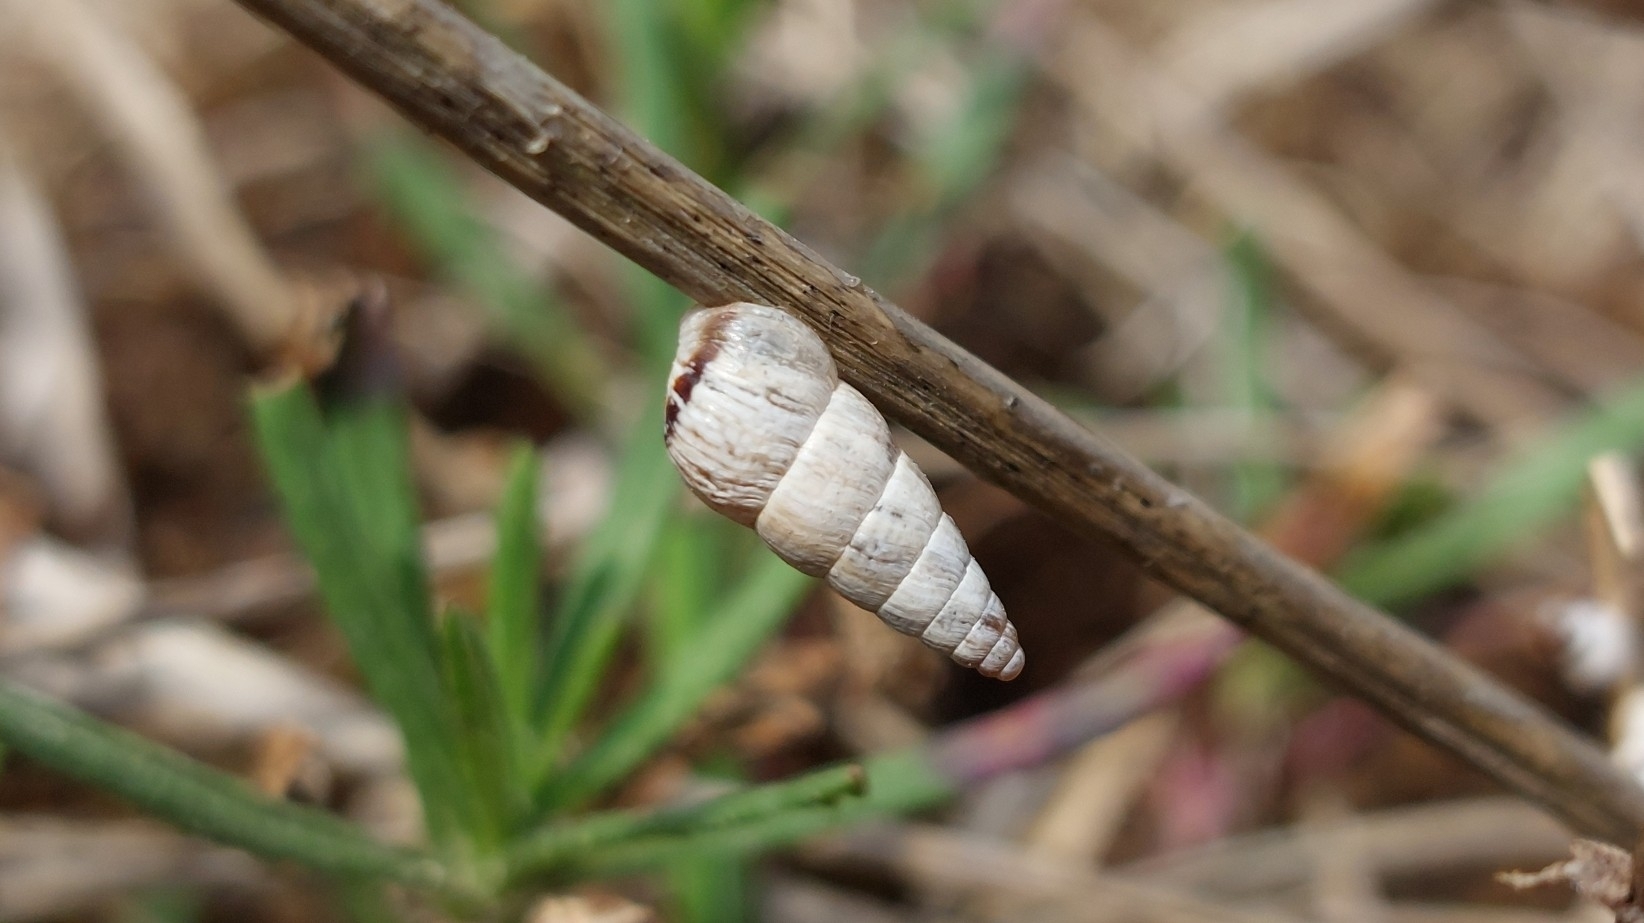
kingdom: Animalia
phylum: Mollusca
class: Gastropoda
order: Stylommatophora
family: Geomitridae
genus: Cochlicella
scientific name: Cochlicella acuta
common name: Pointed snail
